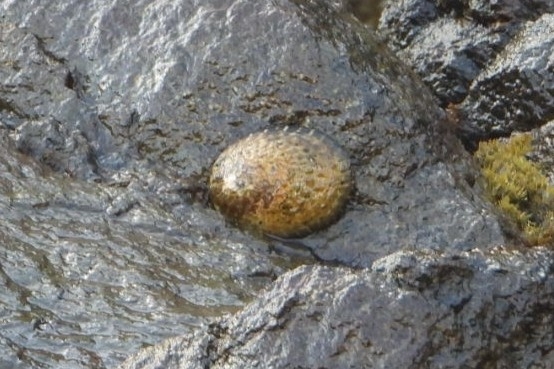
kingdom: Animalia
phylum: Mollusca
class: Gastropoda
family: Lottiidae
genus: Lottia
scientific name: Lottia gigantea
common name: Owl limpet
